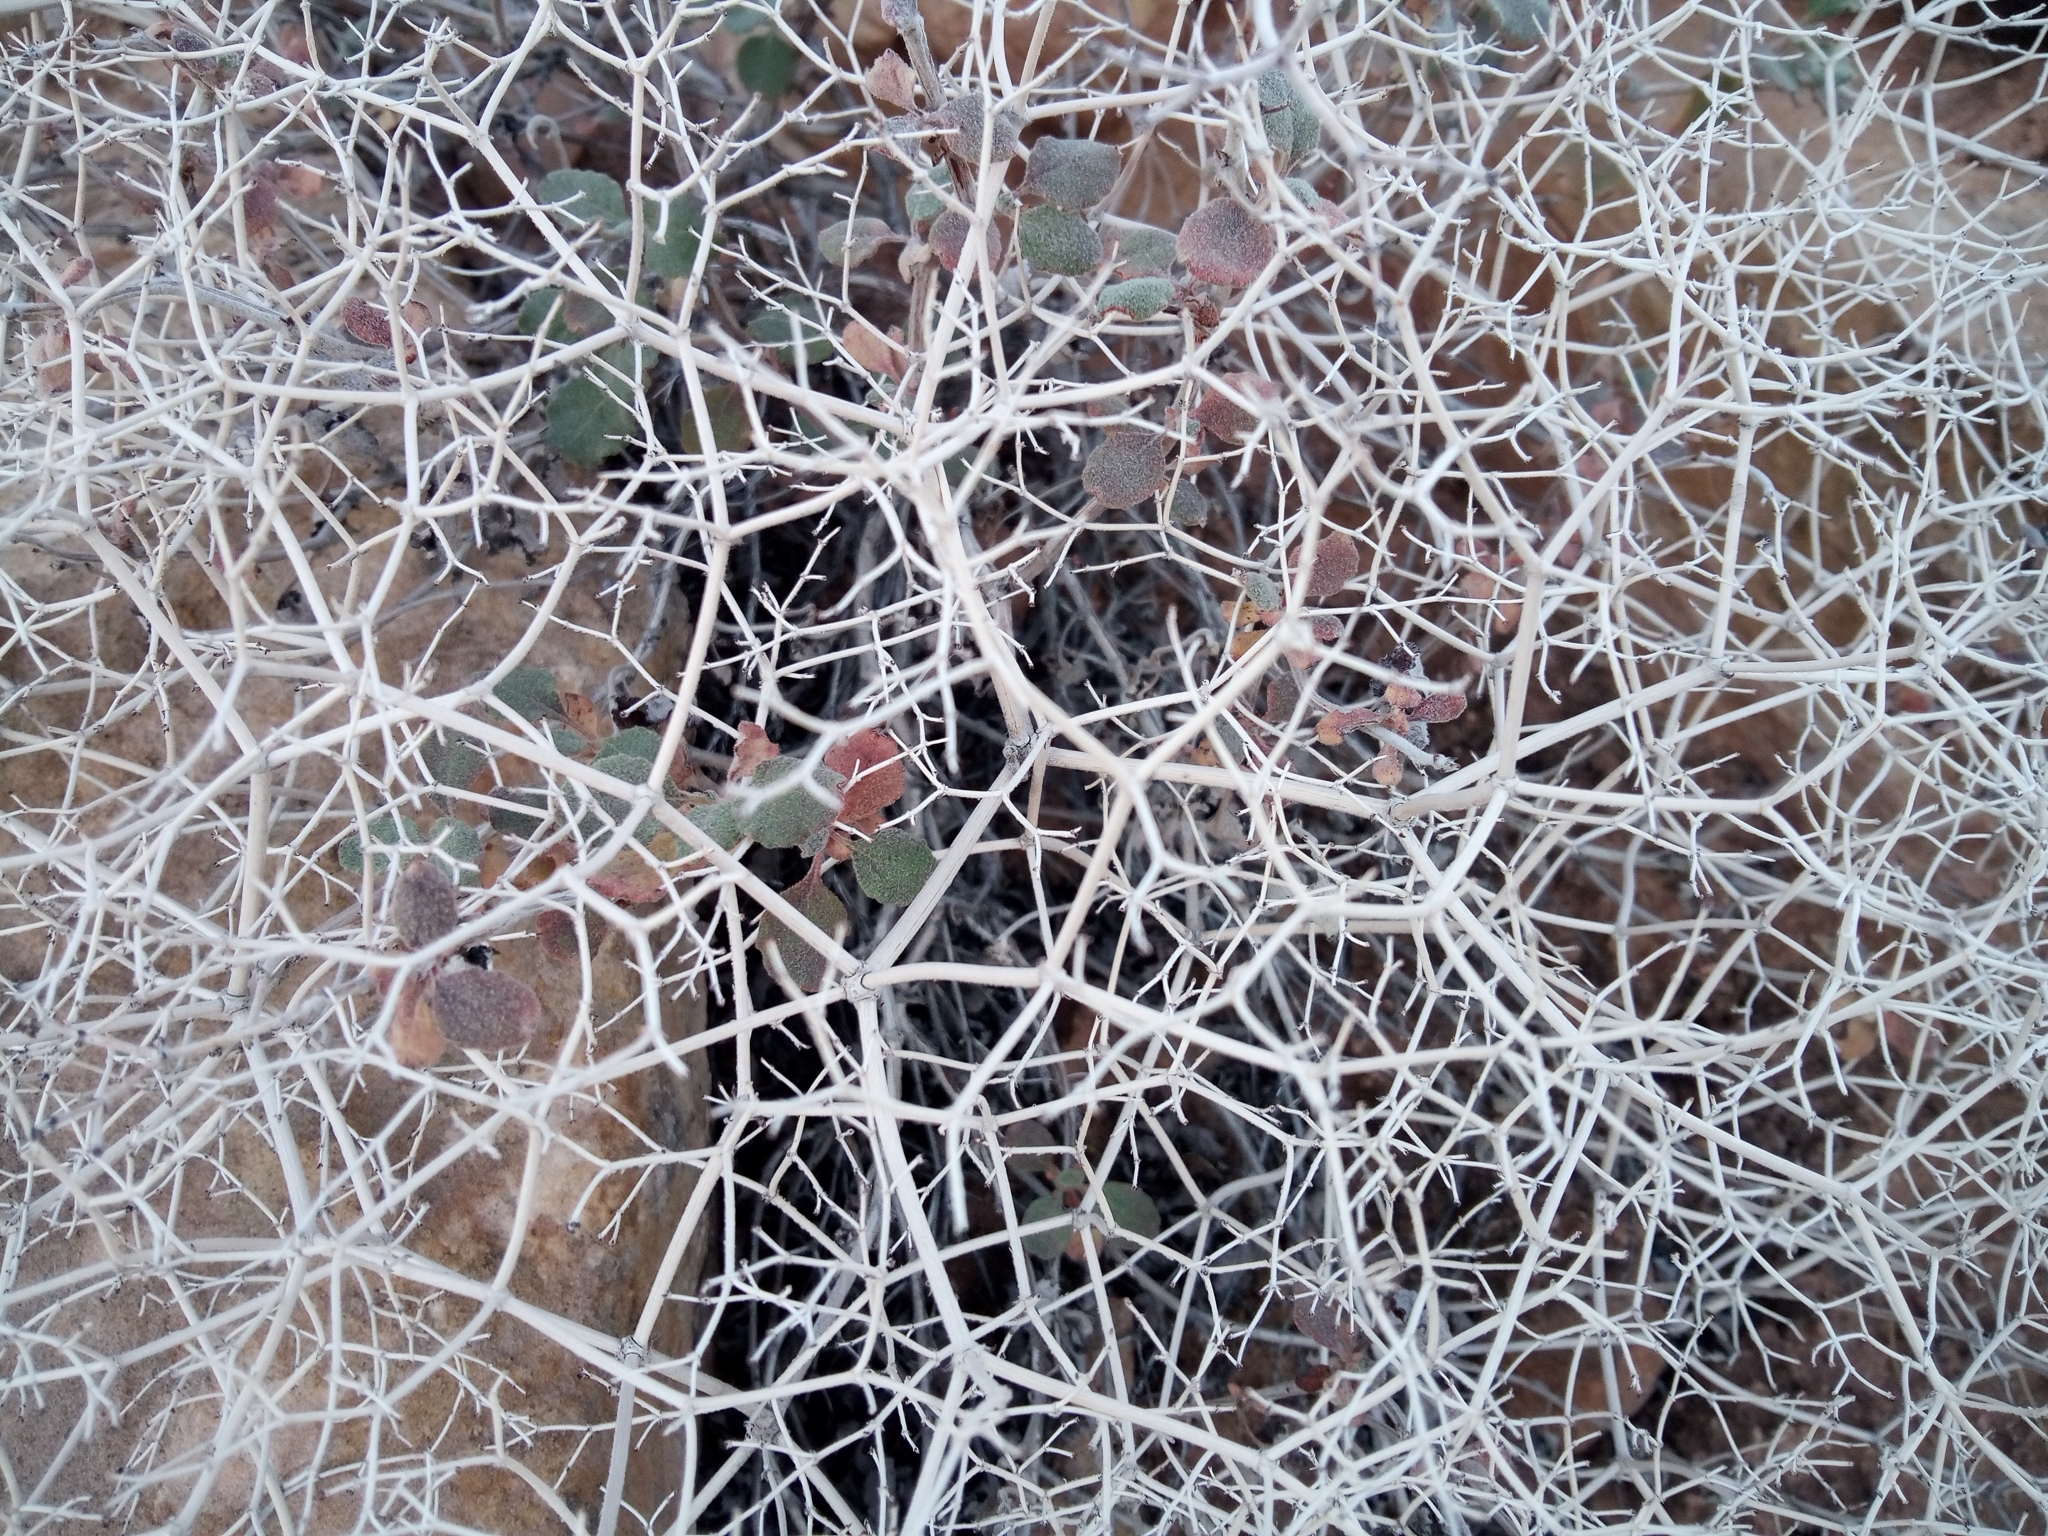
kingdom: Plantae
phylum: Tracheophyta
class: Magnoliopsida
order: Caryophyllales
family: Polygonaceae
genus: Eriogonum
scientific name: Eriogonum corymbosum
